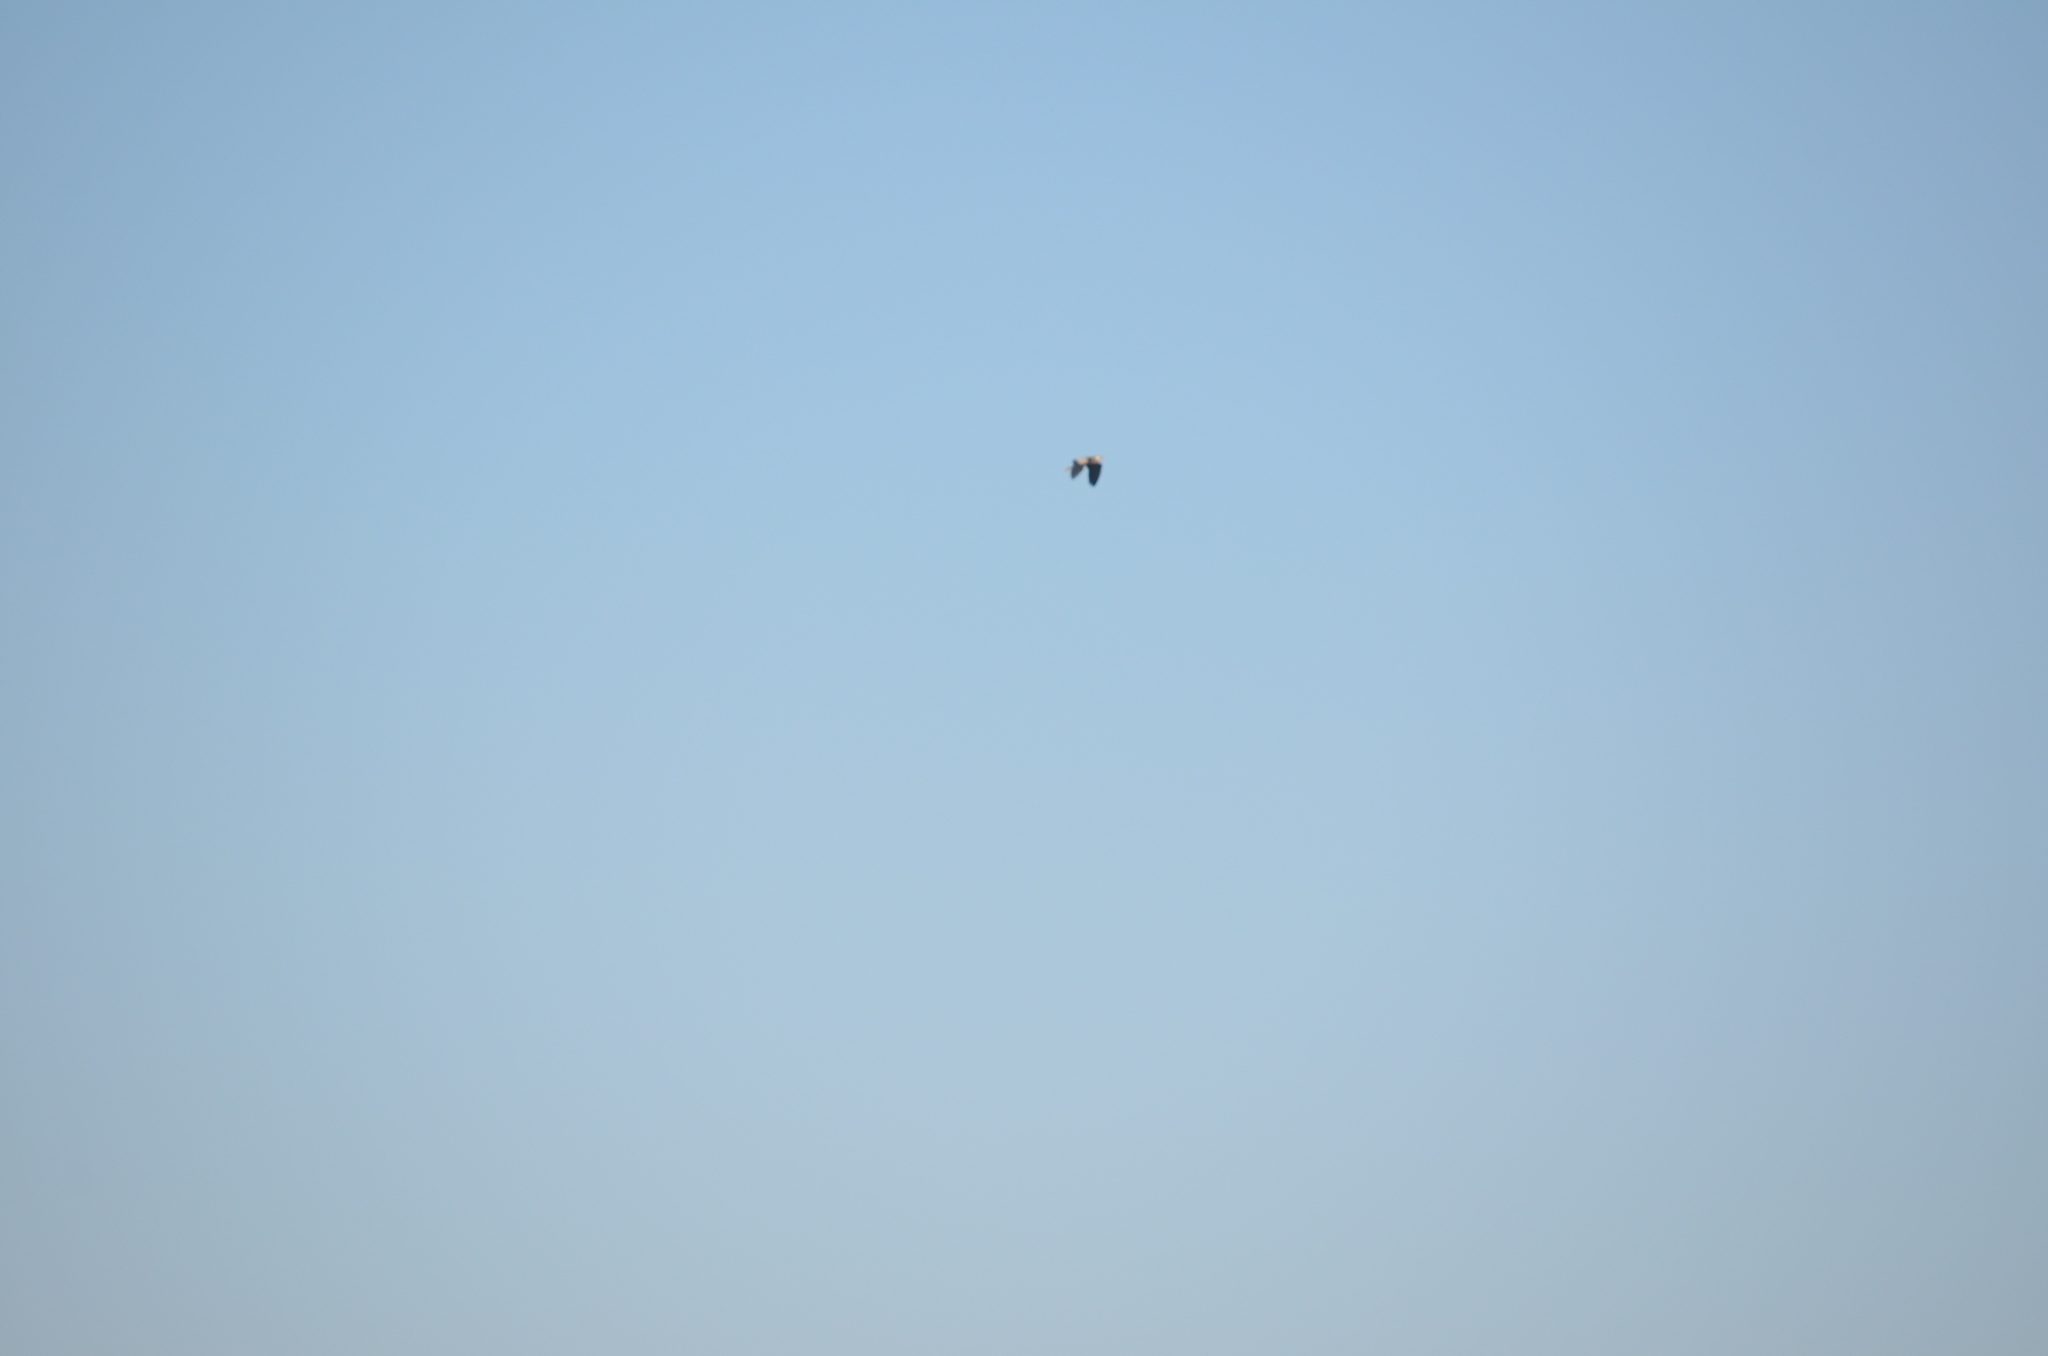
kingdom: Animalia
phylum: Chordata
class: Aves
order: Pelecaniformes
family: Ardeidae
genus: Ardea
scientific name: Ardea herodias
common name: Great blue heron
